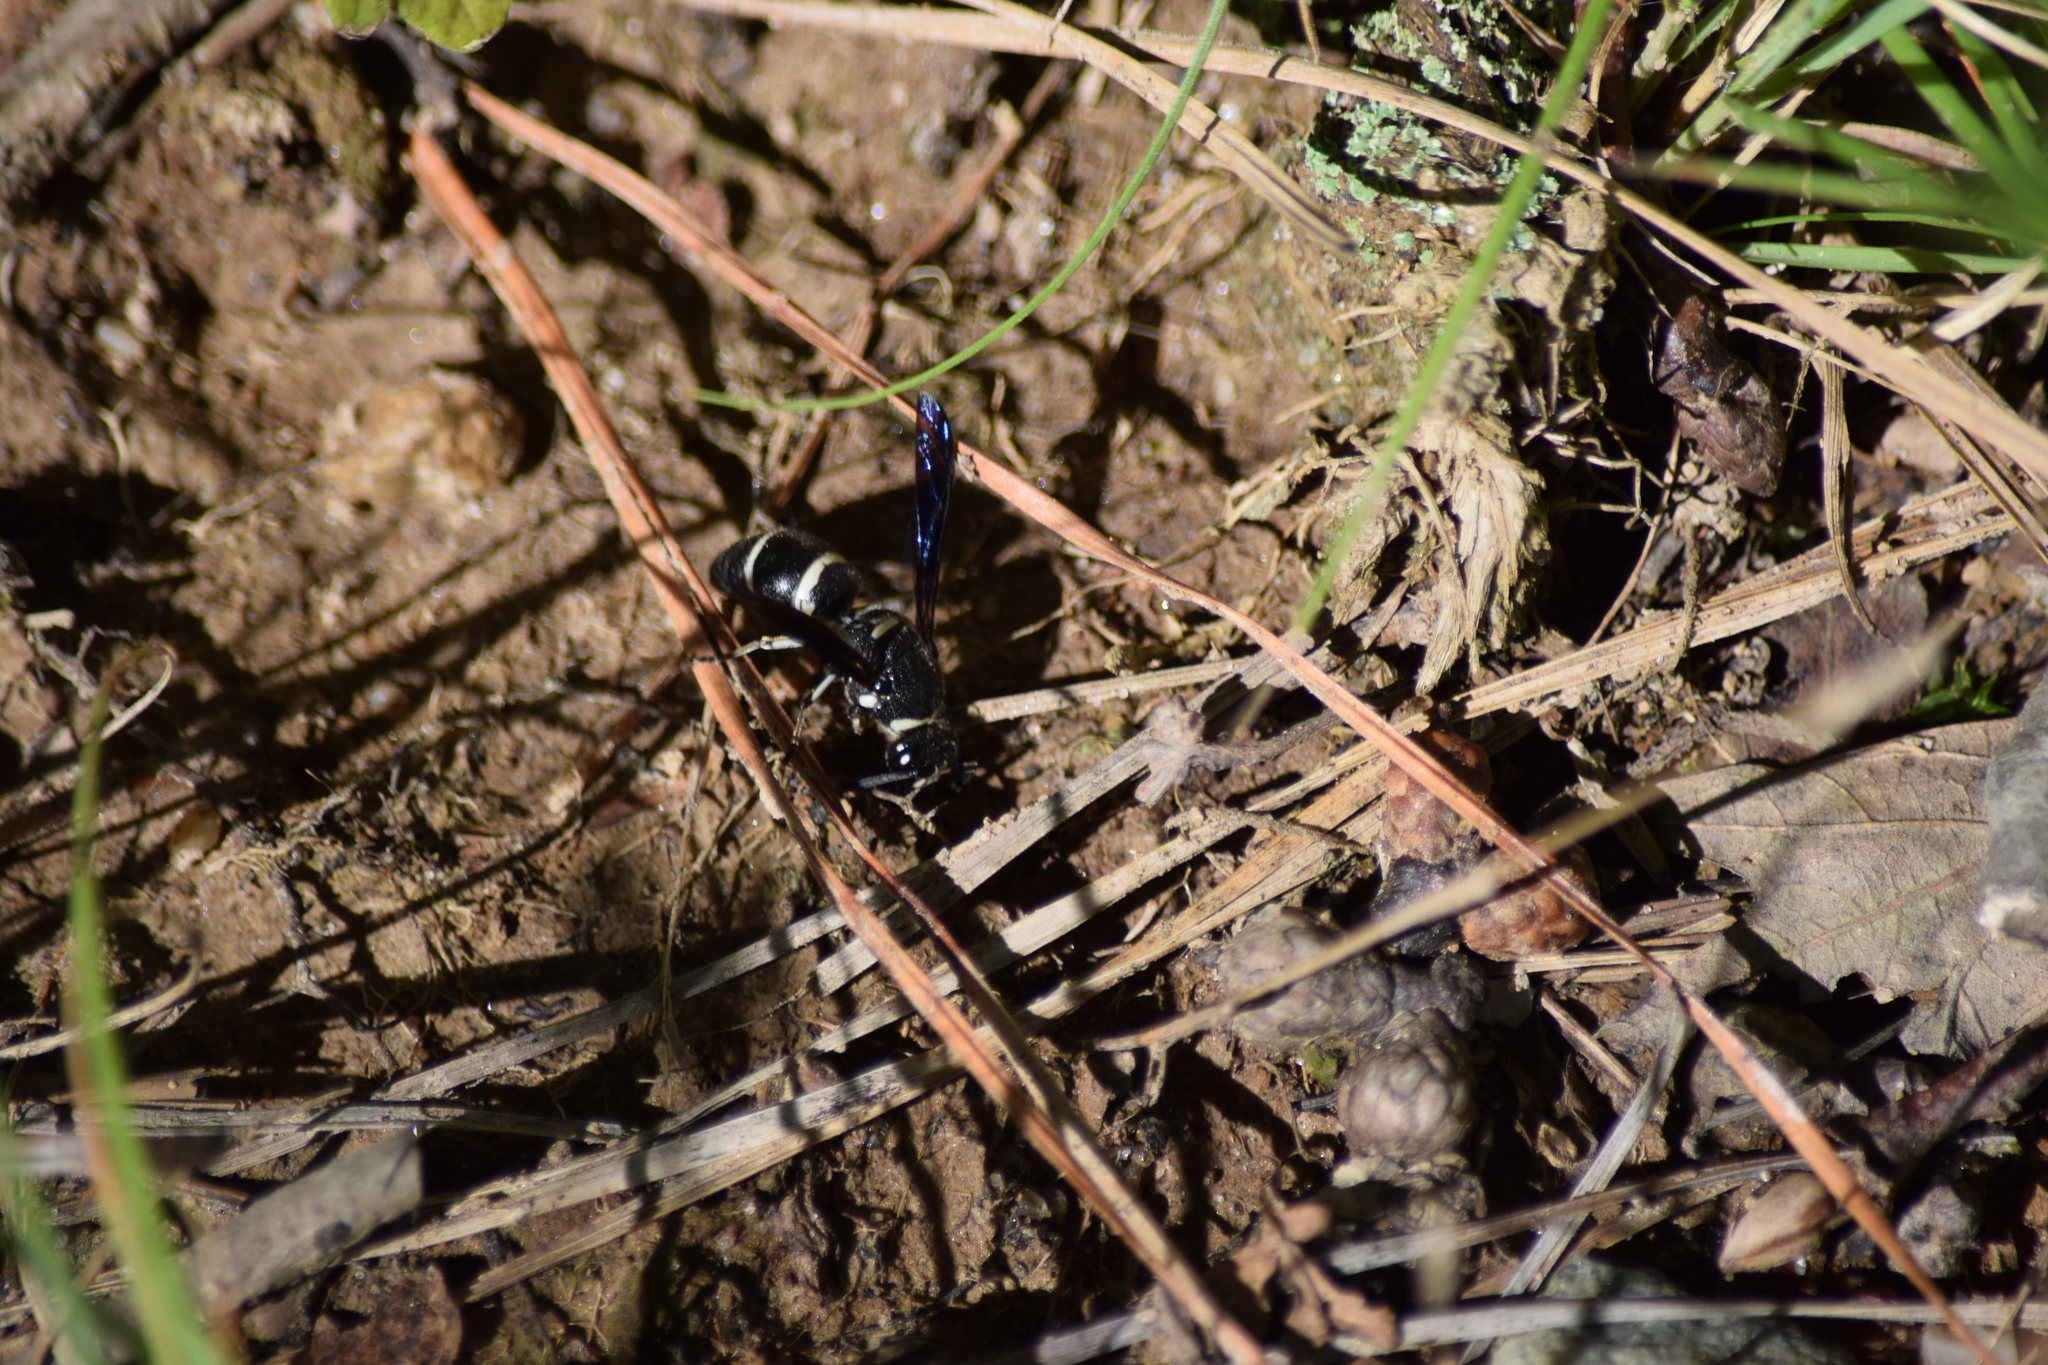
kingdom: Animalia
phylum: Arthropoda
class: Insecta
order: Hymenoptera
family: Eumenidae
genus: Euodynerus
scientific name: Euodynerus schwarzi
